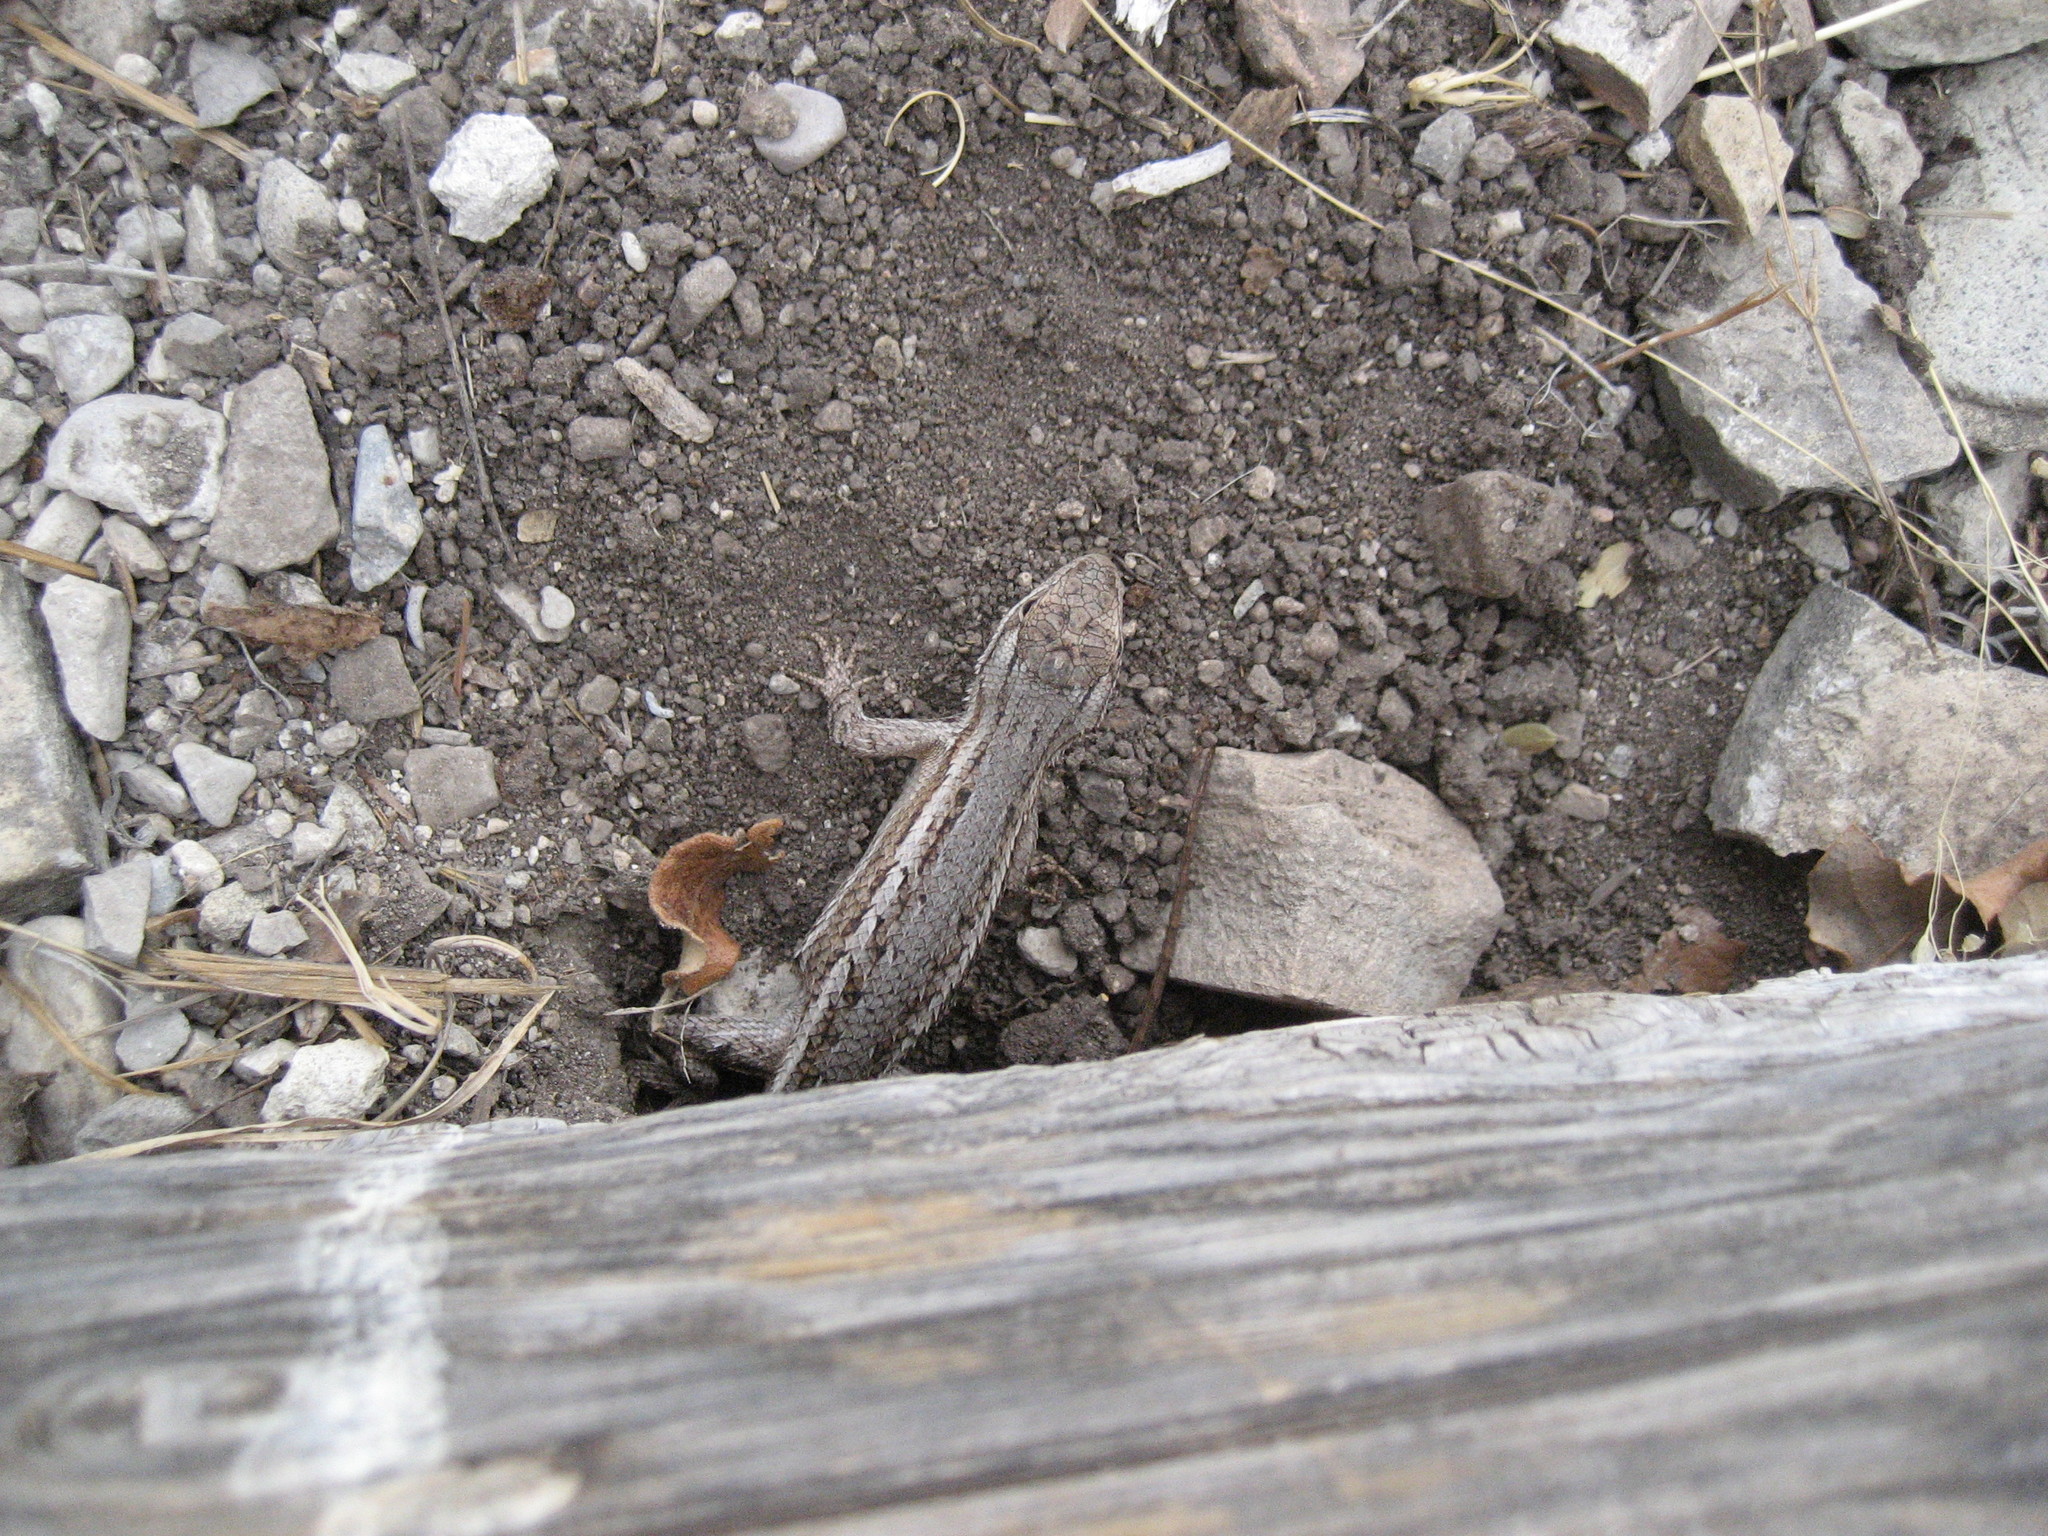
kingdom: Animalia
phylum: Chordata
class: Squamata
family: Phrynosomatidae
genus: Sceloporus
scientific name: Sceloporus cowlesi
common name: White sands prairie lizard
